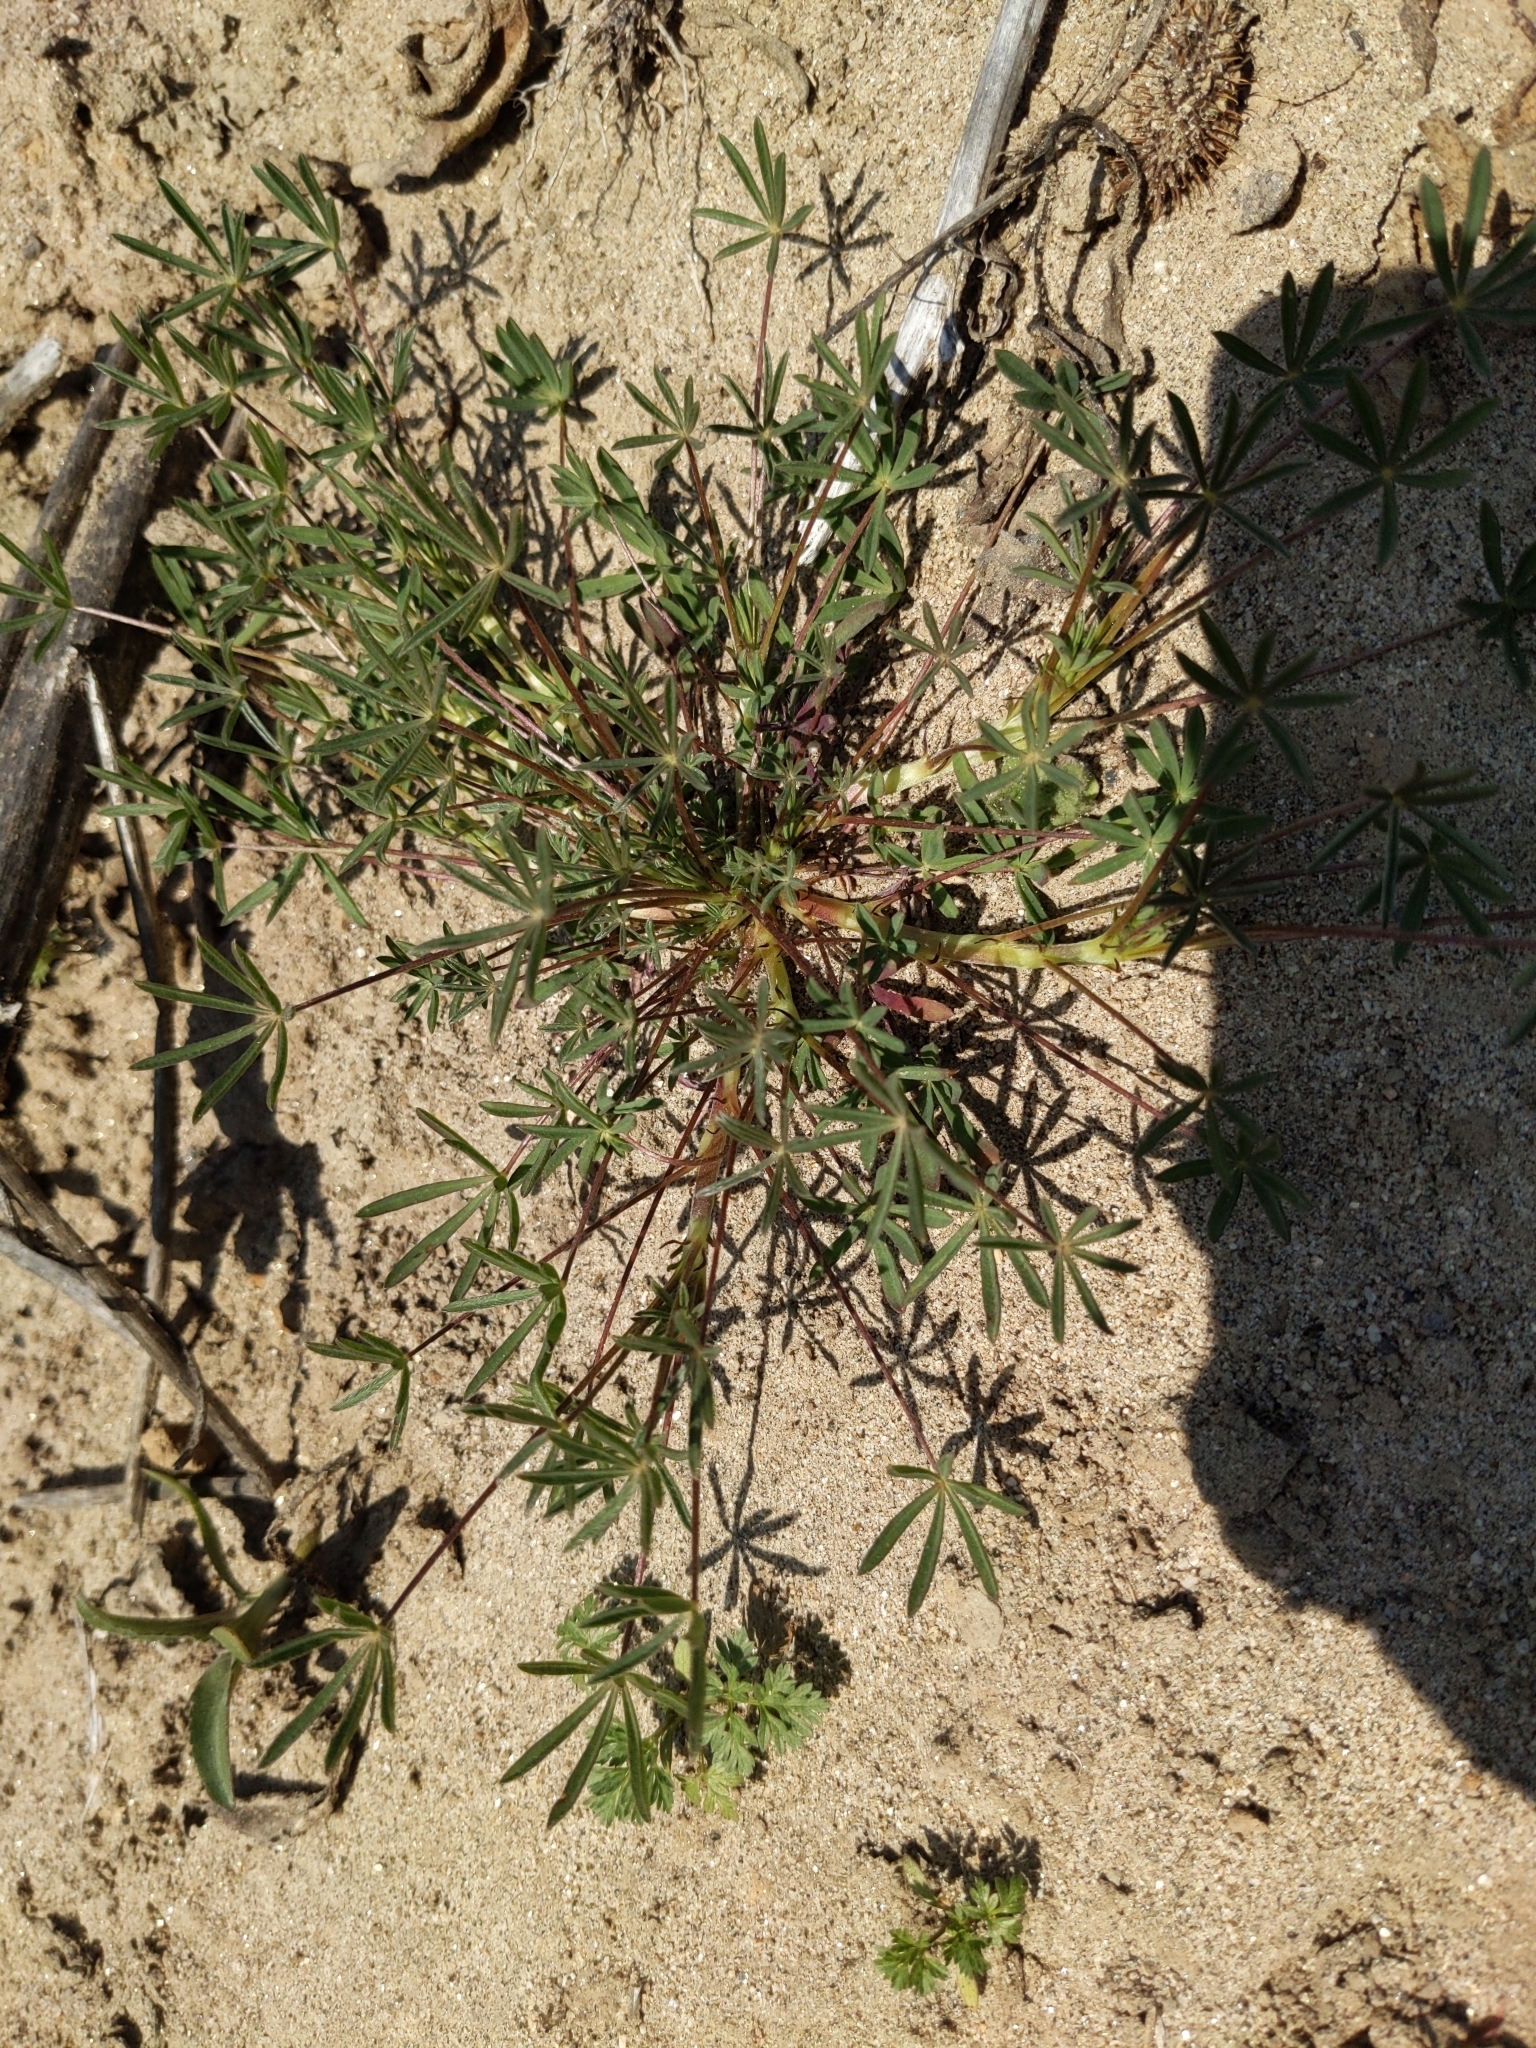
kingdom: Plantae
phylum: Tracheophyta
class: Magnoliopsida
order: Fabales
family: Fabaceae
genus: Lupinus
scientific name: Lupinus bicolor
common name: Miniature lupine
